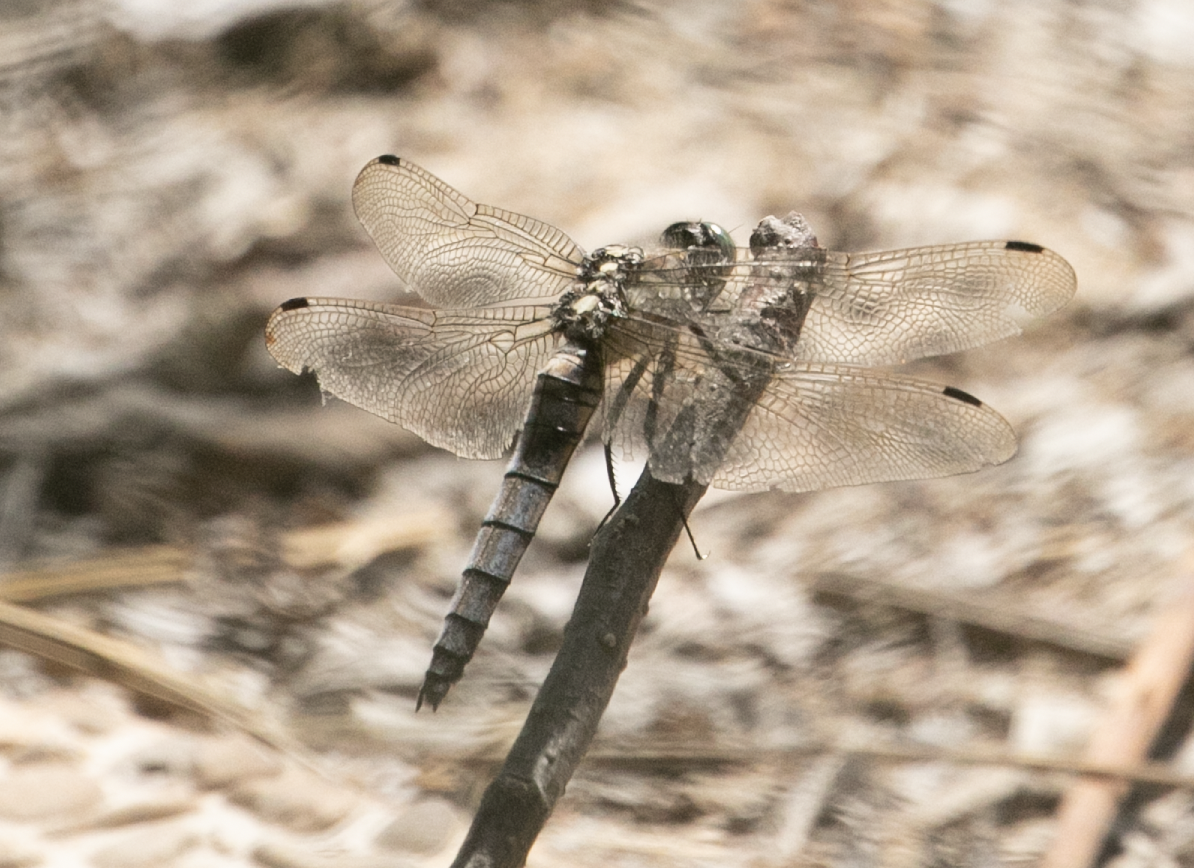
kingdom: Animalia
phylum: Arthropoda
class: Insecta
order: Odonata
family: Libellulidae
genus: Orthetrum
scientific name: Orthetrum cancellatum
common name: Black-tailed skimmer
